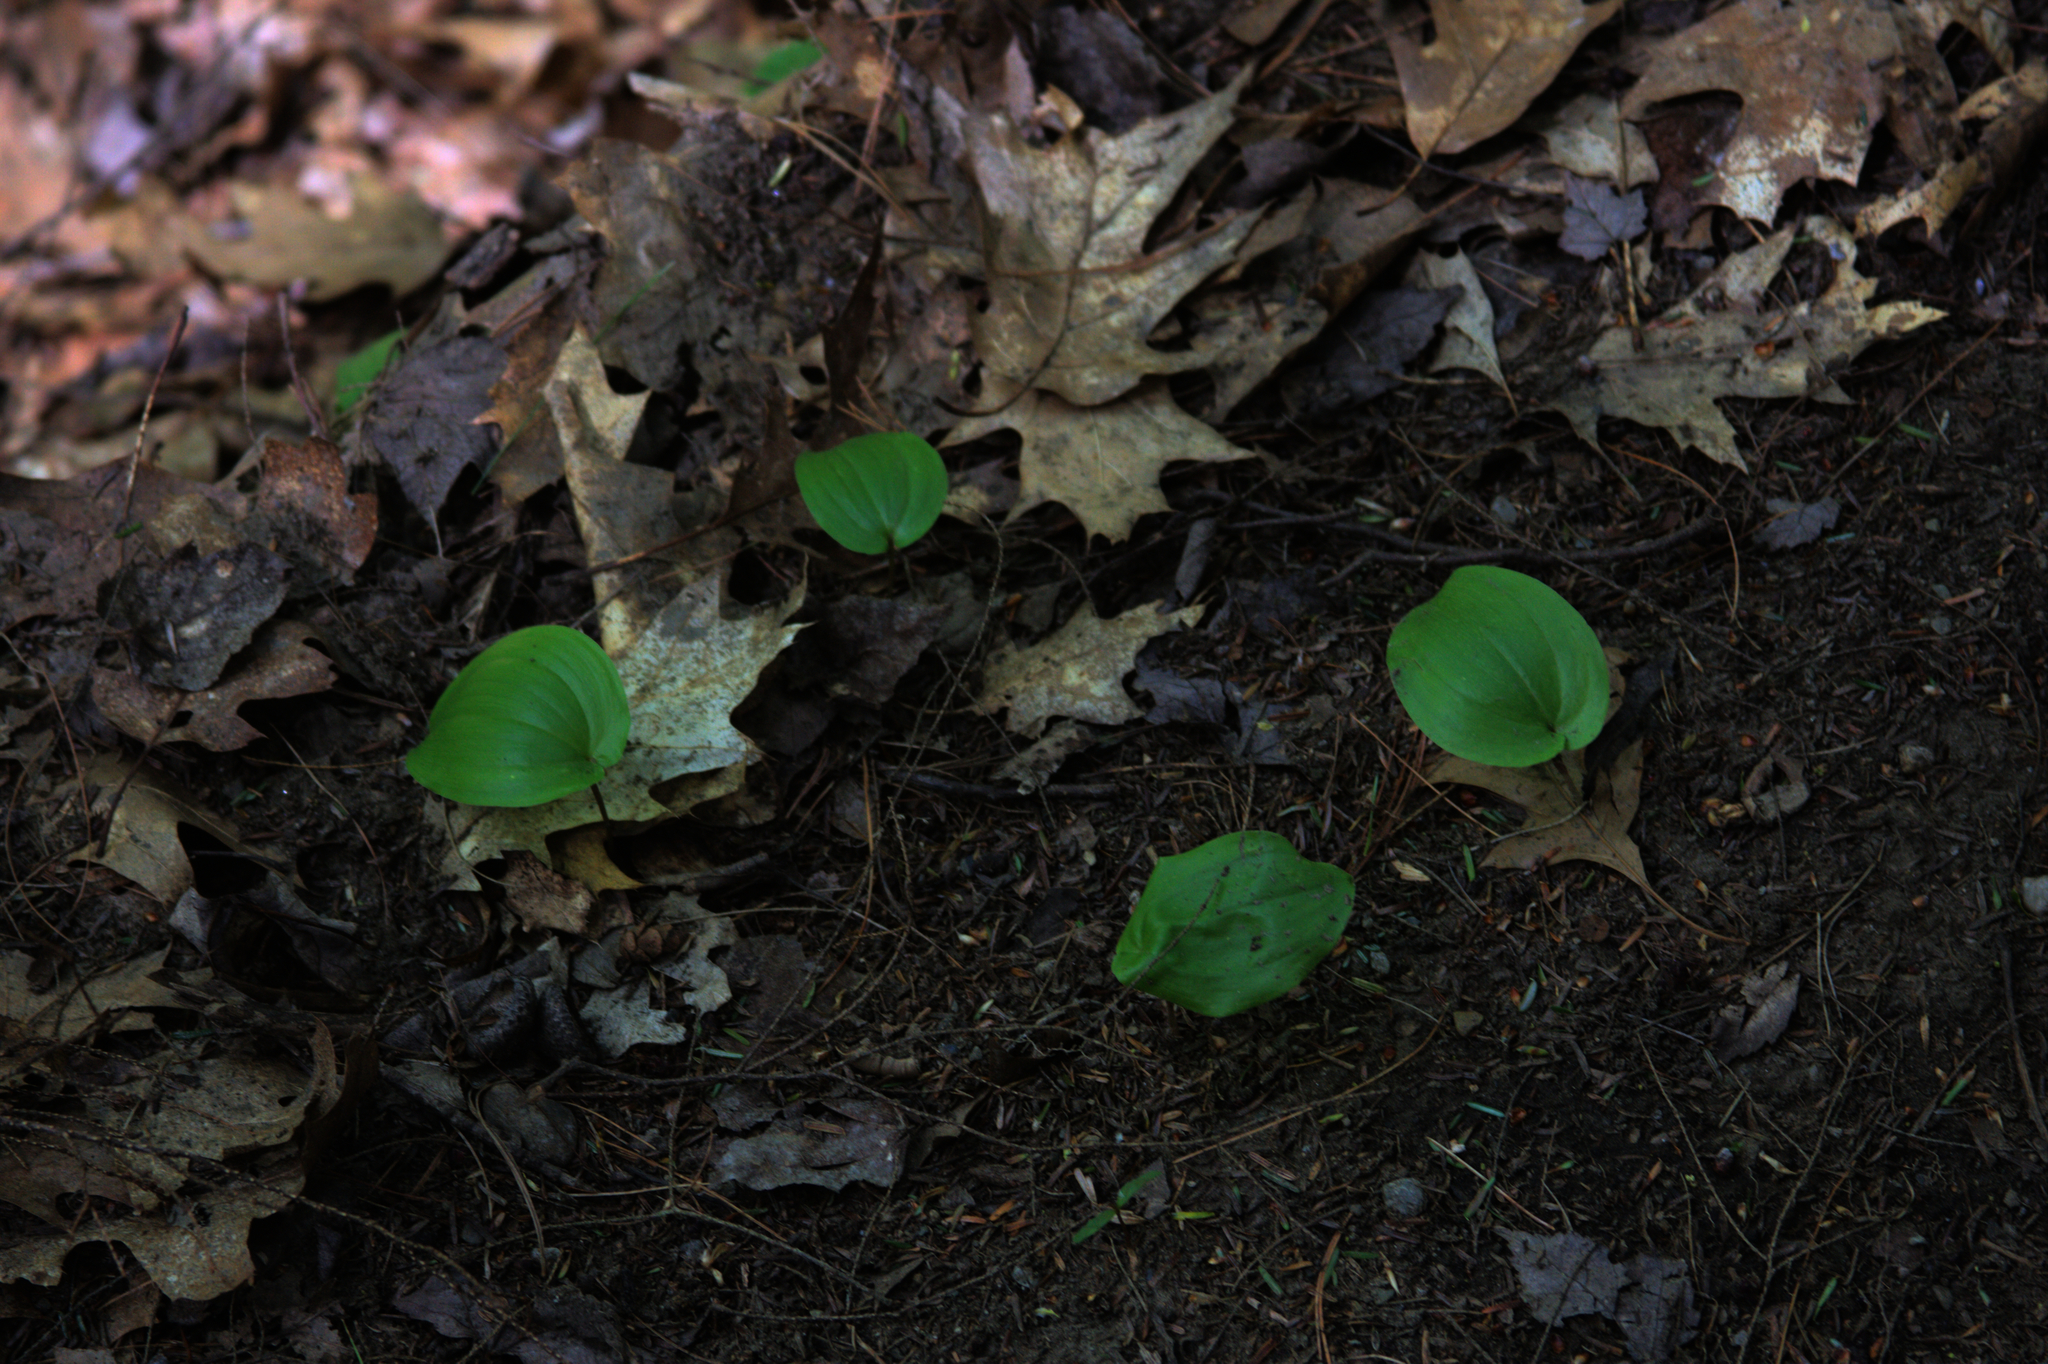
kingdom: Plantae
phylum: Tracheophyta
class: Liliopsida
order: Asparagales
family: Asparagaceae
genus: Maianthemum
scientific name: Maianthemum canadense
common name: False lily-of-the-valley
